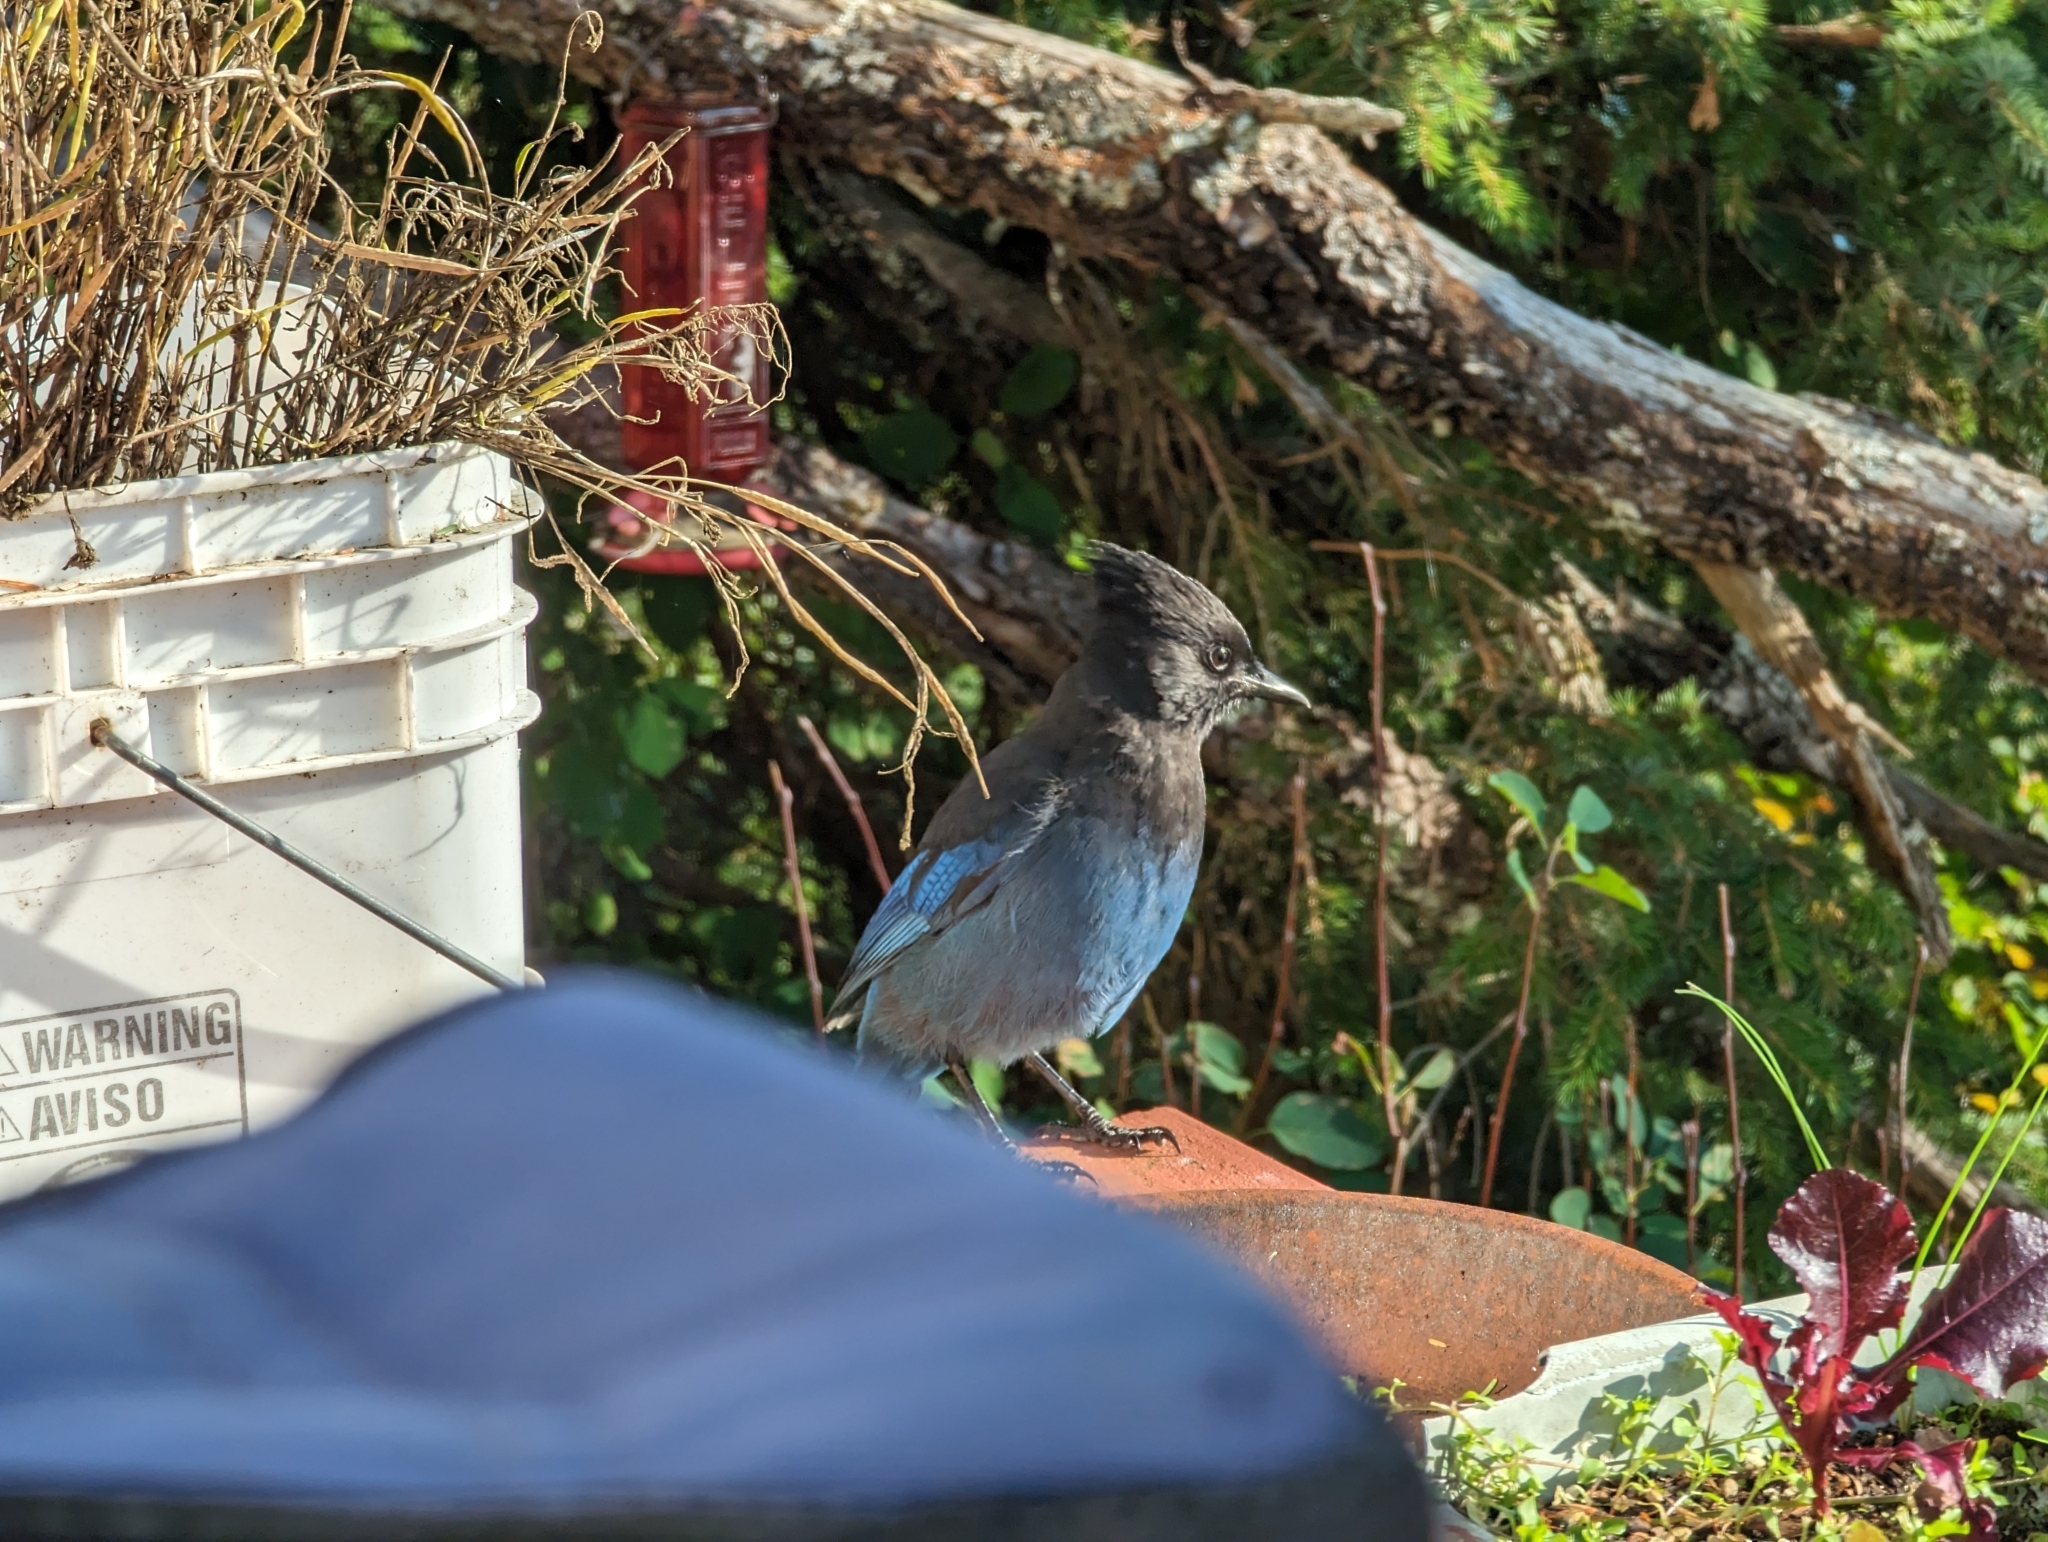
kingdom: Animalia
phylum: Chordata
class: Aves
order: Passeriformes
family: Corvidae
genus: Cyanocitta
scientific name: Cyanocitta stelleri
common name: Steller's jay
